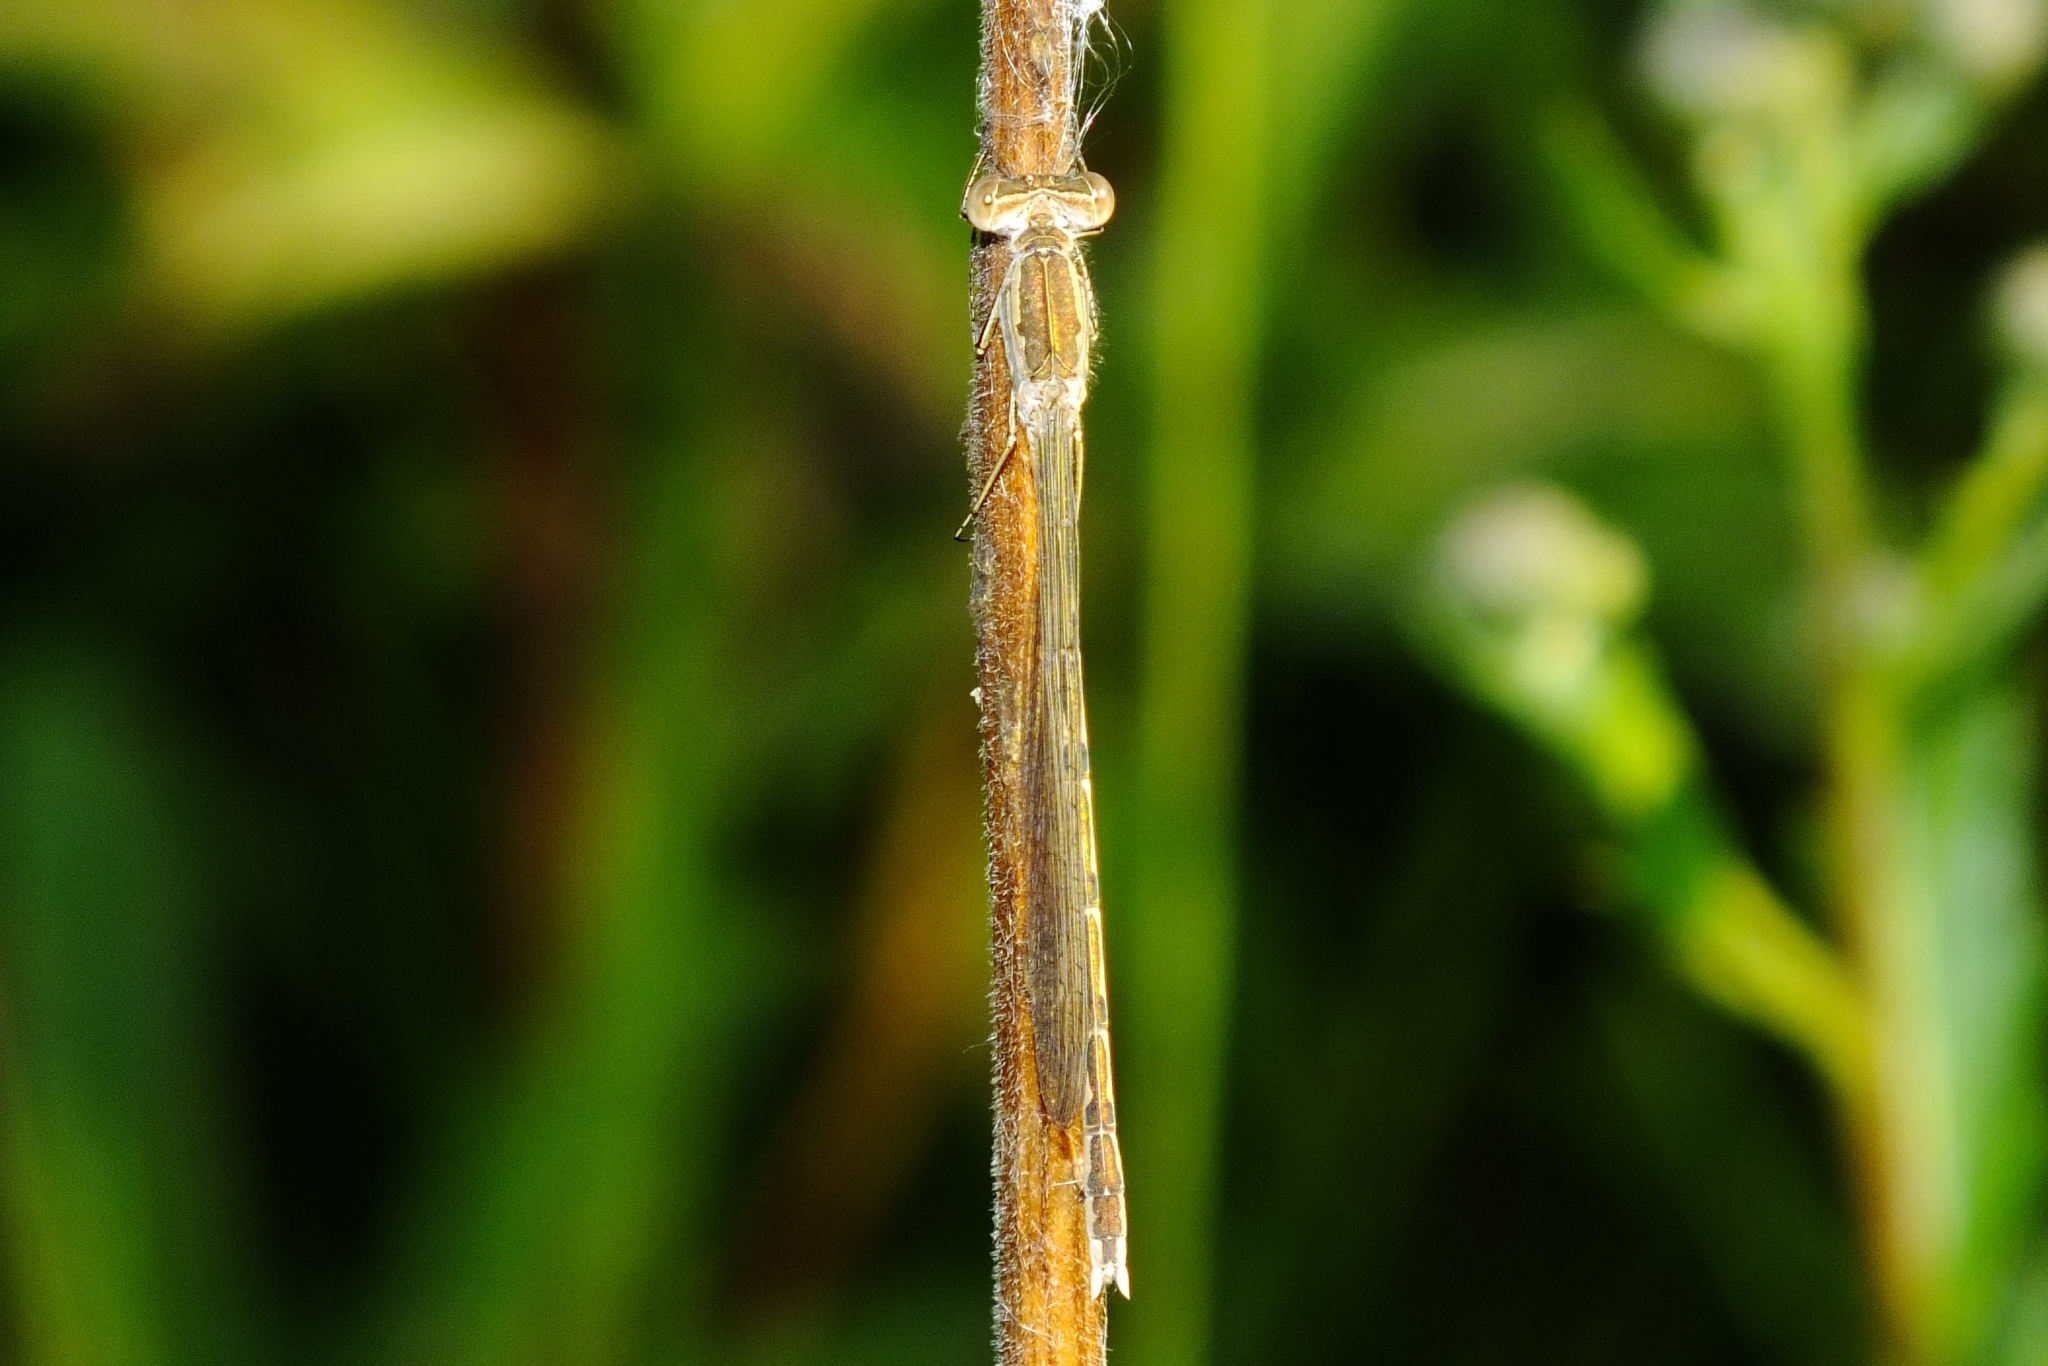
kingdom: Animalia
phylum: Arthropoda
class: Insecta
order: Odonata
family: Lestidae
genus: Sympecma
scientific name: Sympecma paedisca
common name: Siberian winter damsel
